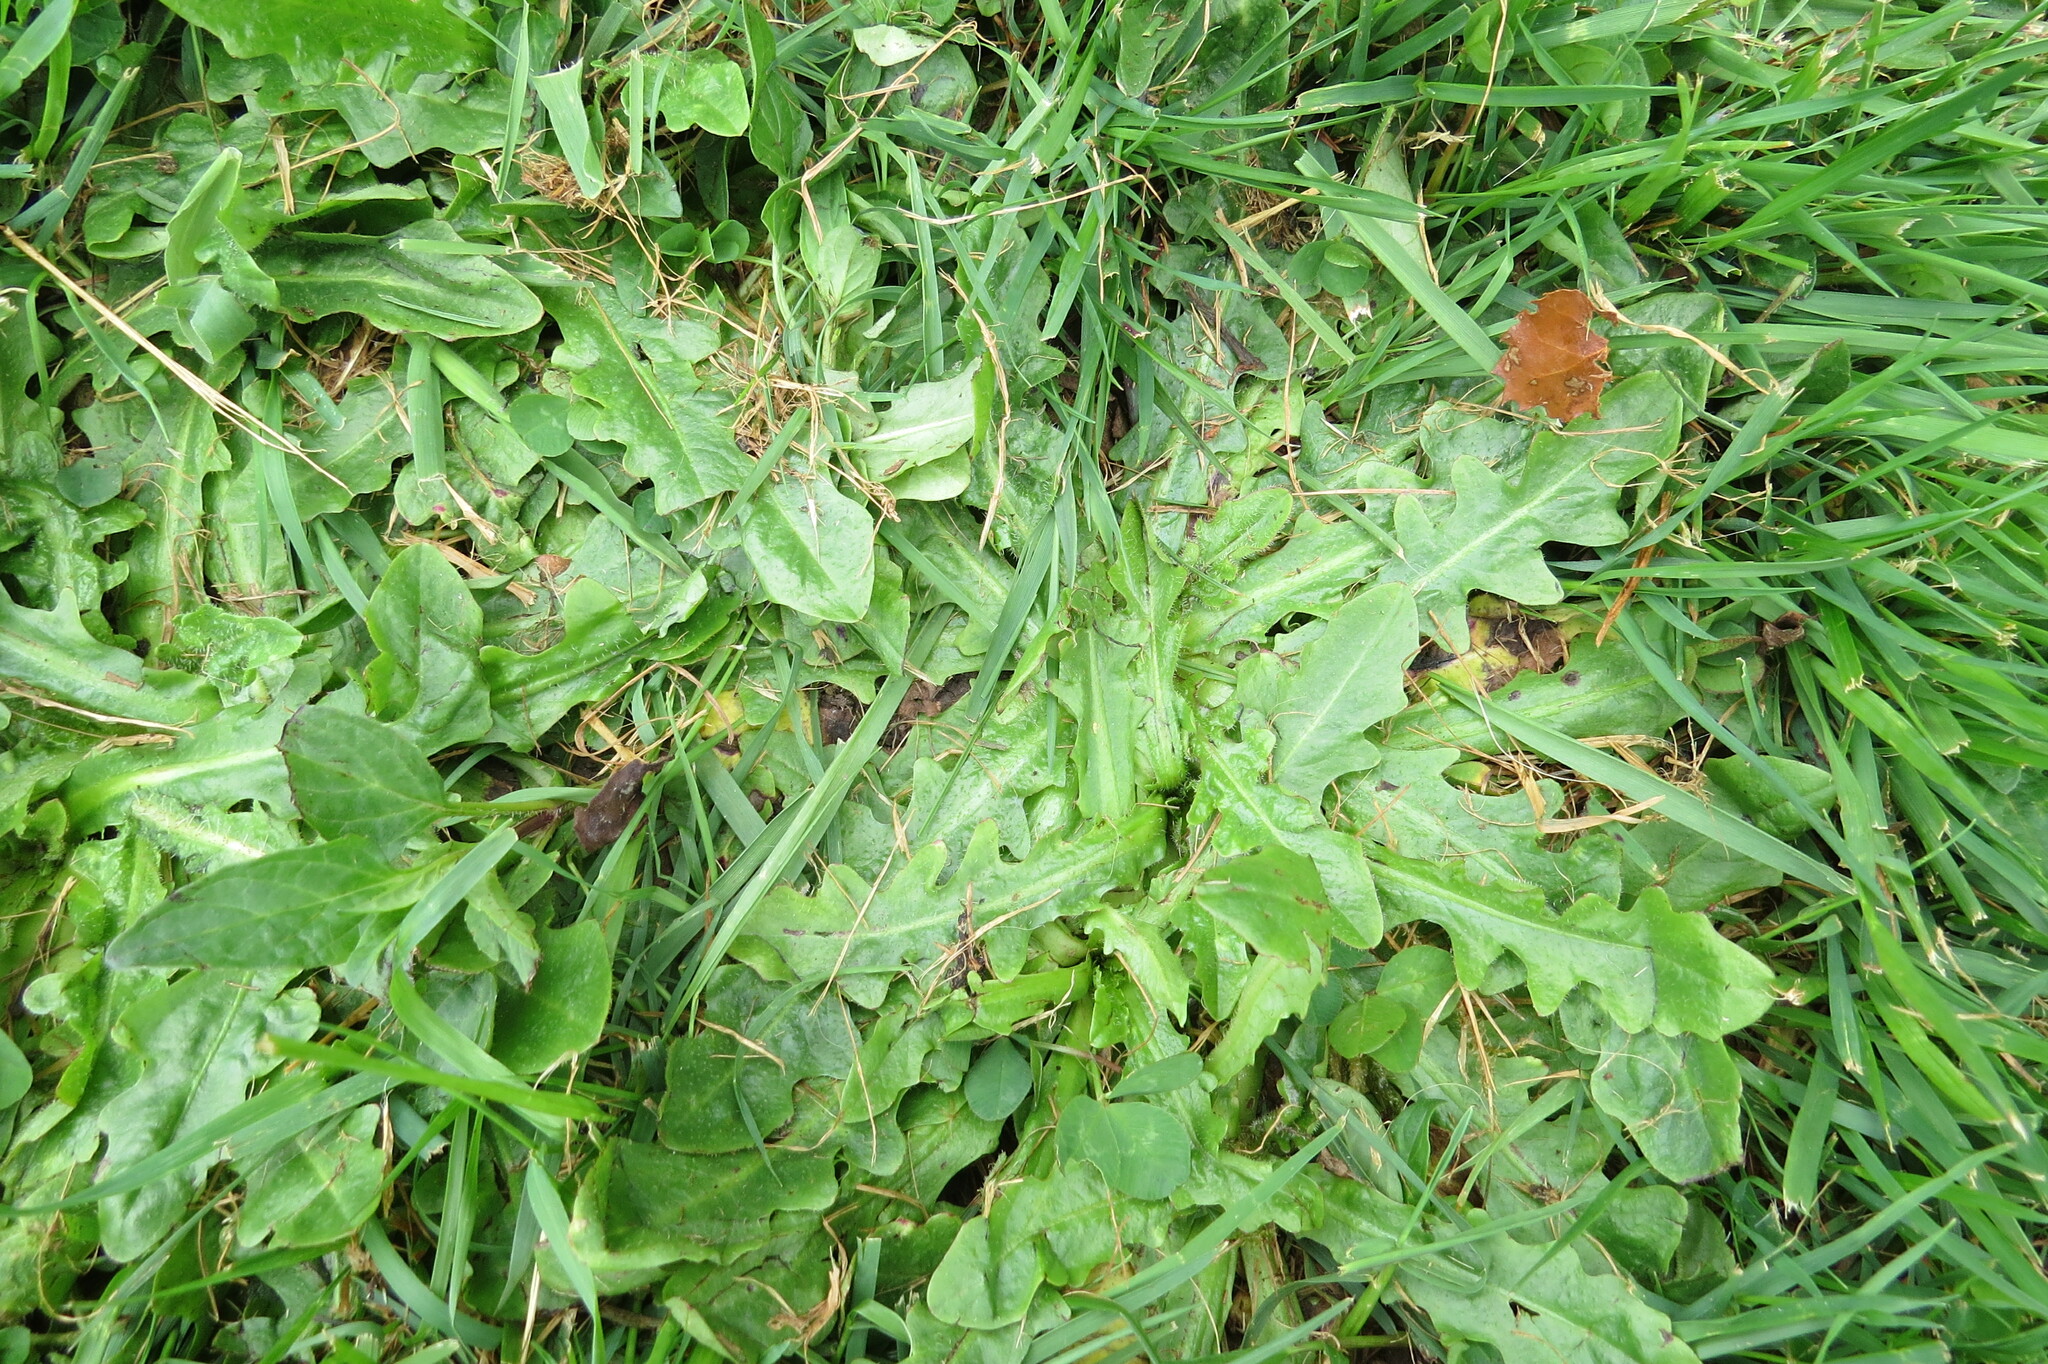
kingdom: Plantae
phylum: Tracheophyta
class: Magnoliopsida
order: Asterales
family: Asteraceae
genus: Hypochaeris
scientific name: Hypochaeris radicata
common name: Flatweed
